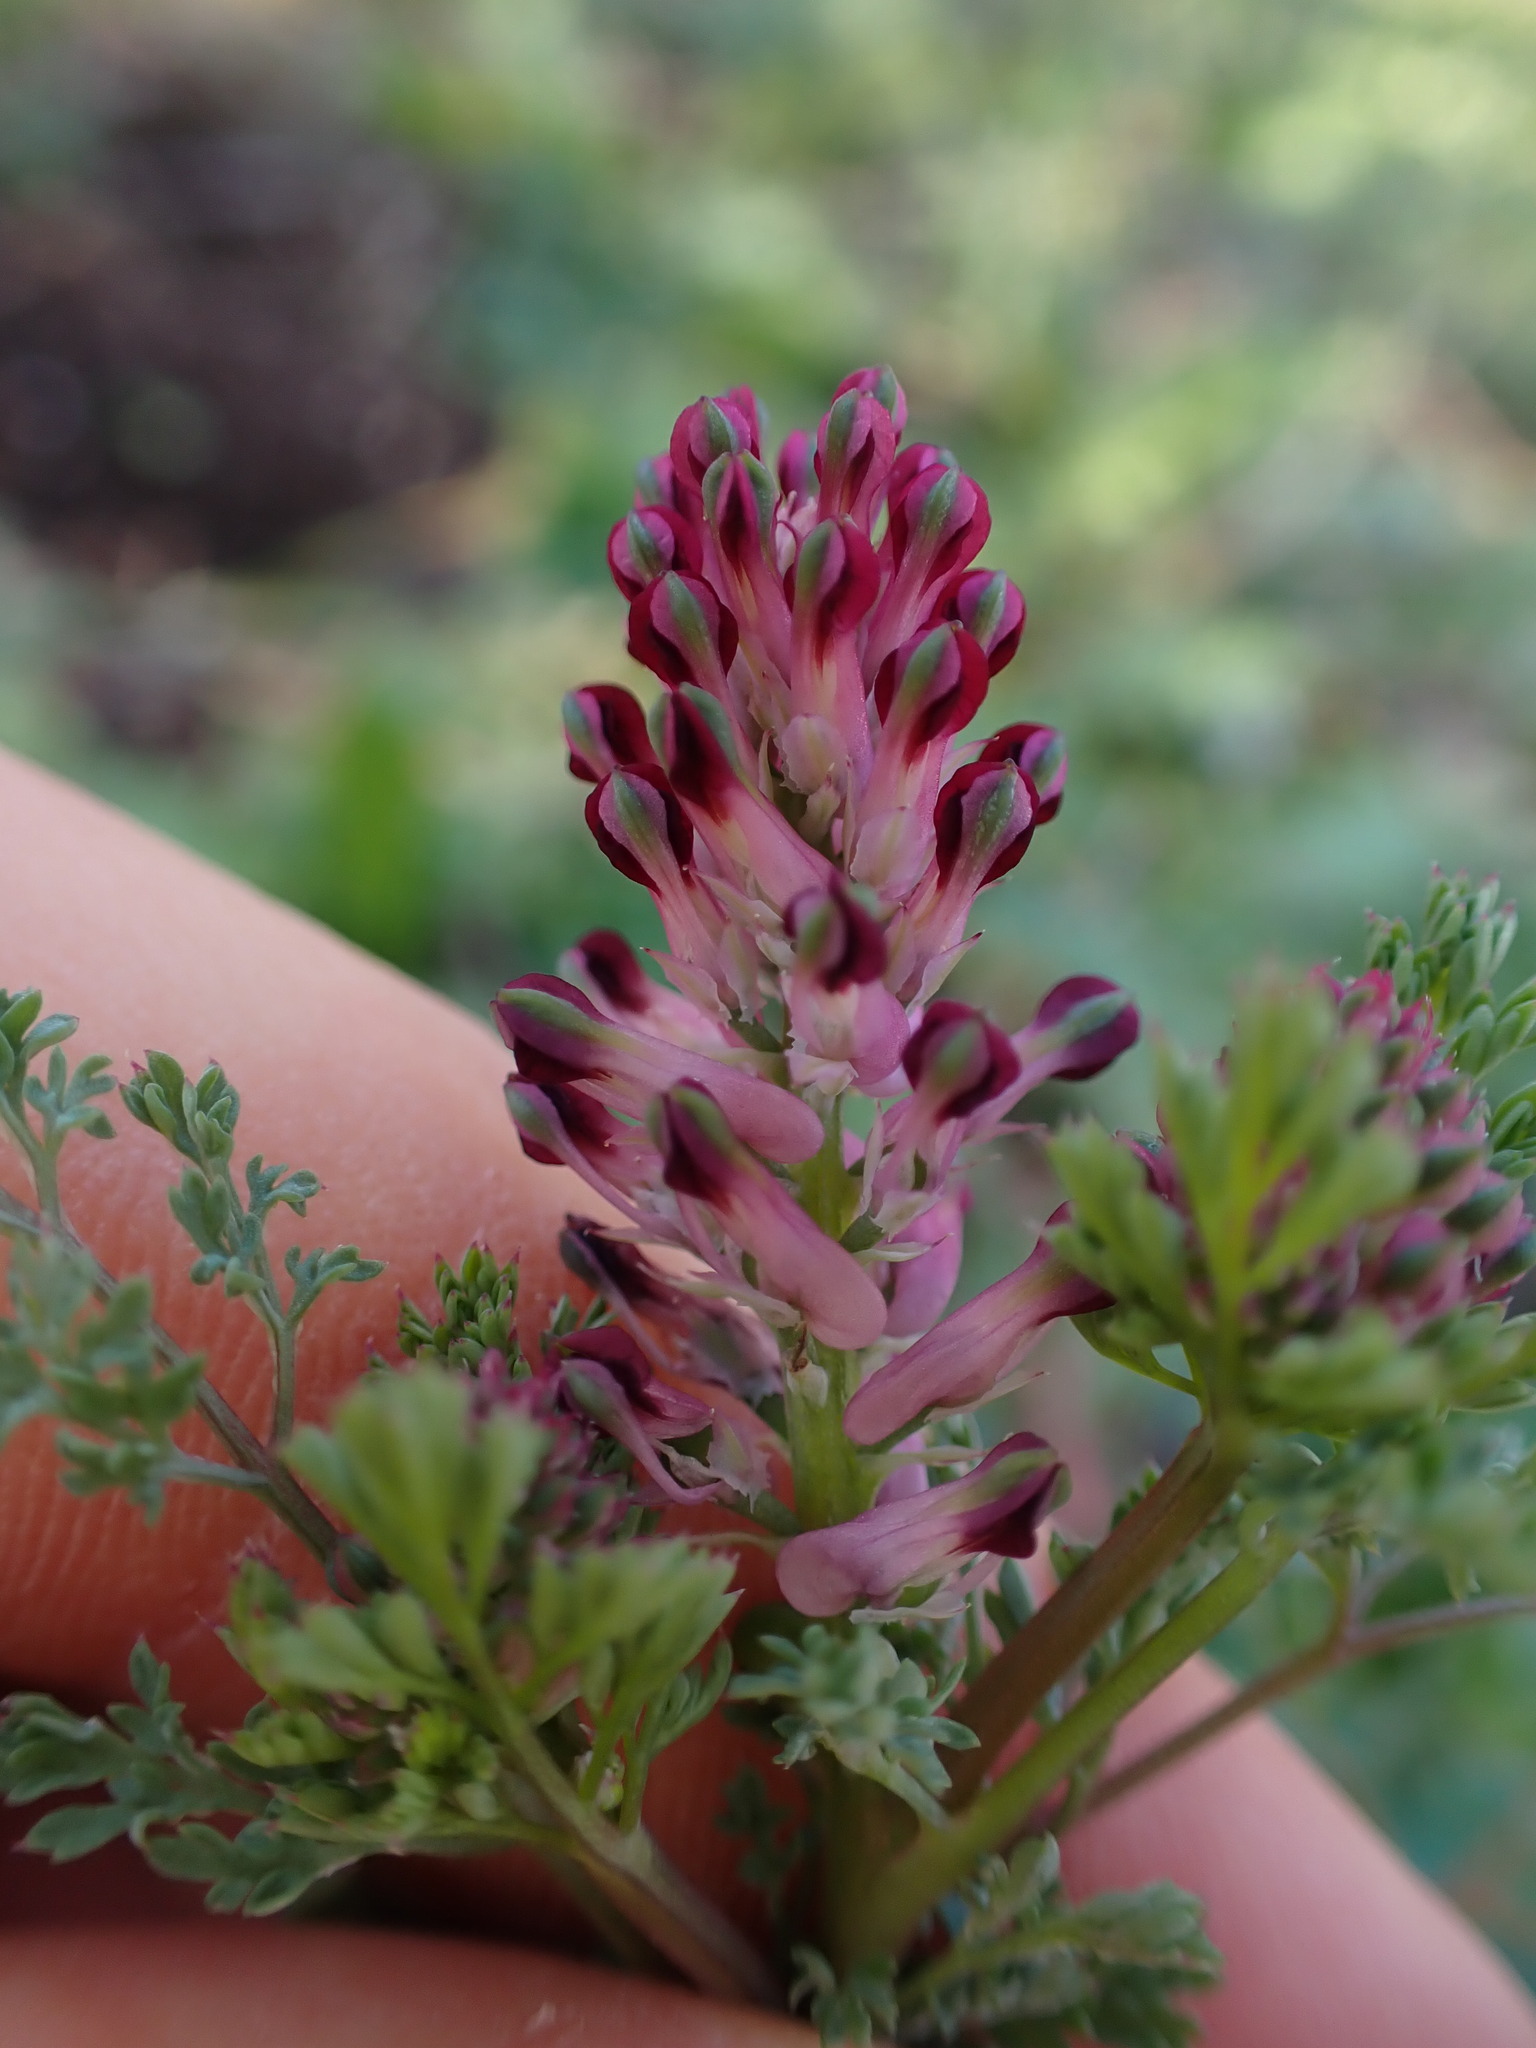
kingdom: Plantae
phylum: Tracheophyta
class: Magnoliopsida
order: Ranunculales
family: Papaveraceae
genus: Fumaria
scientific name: Fumaria officinalis
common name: Common fumitory
